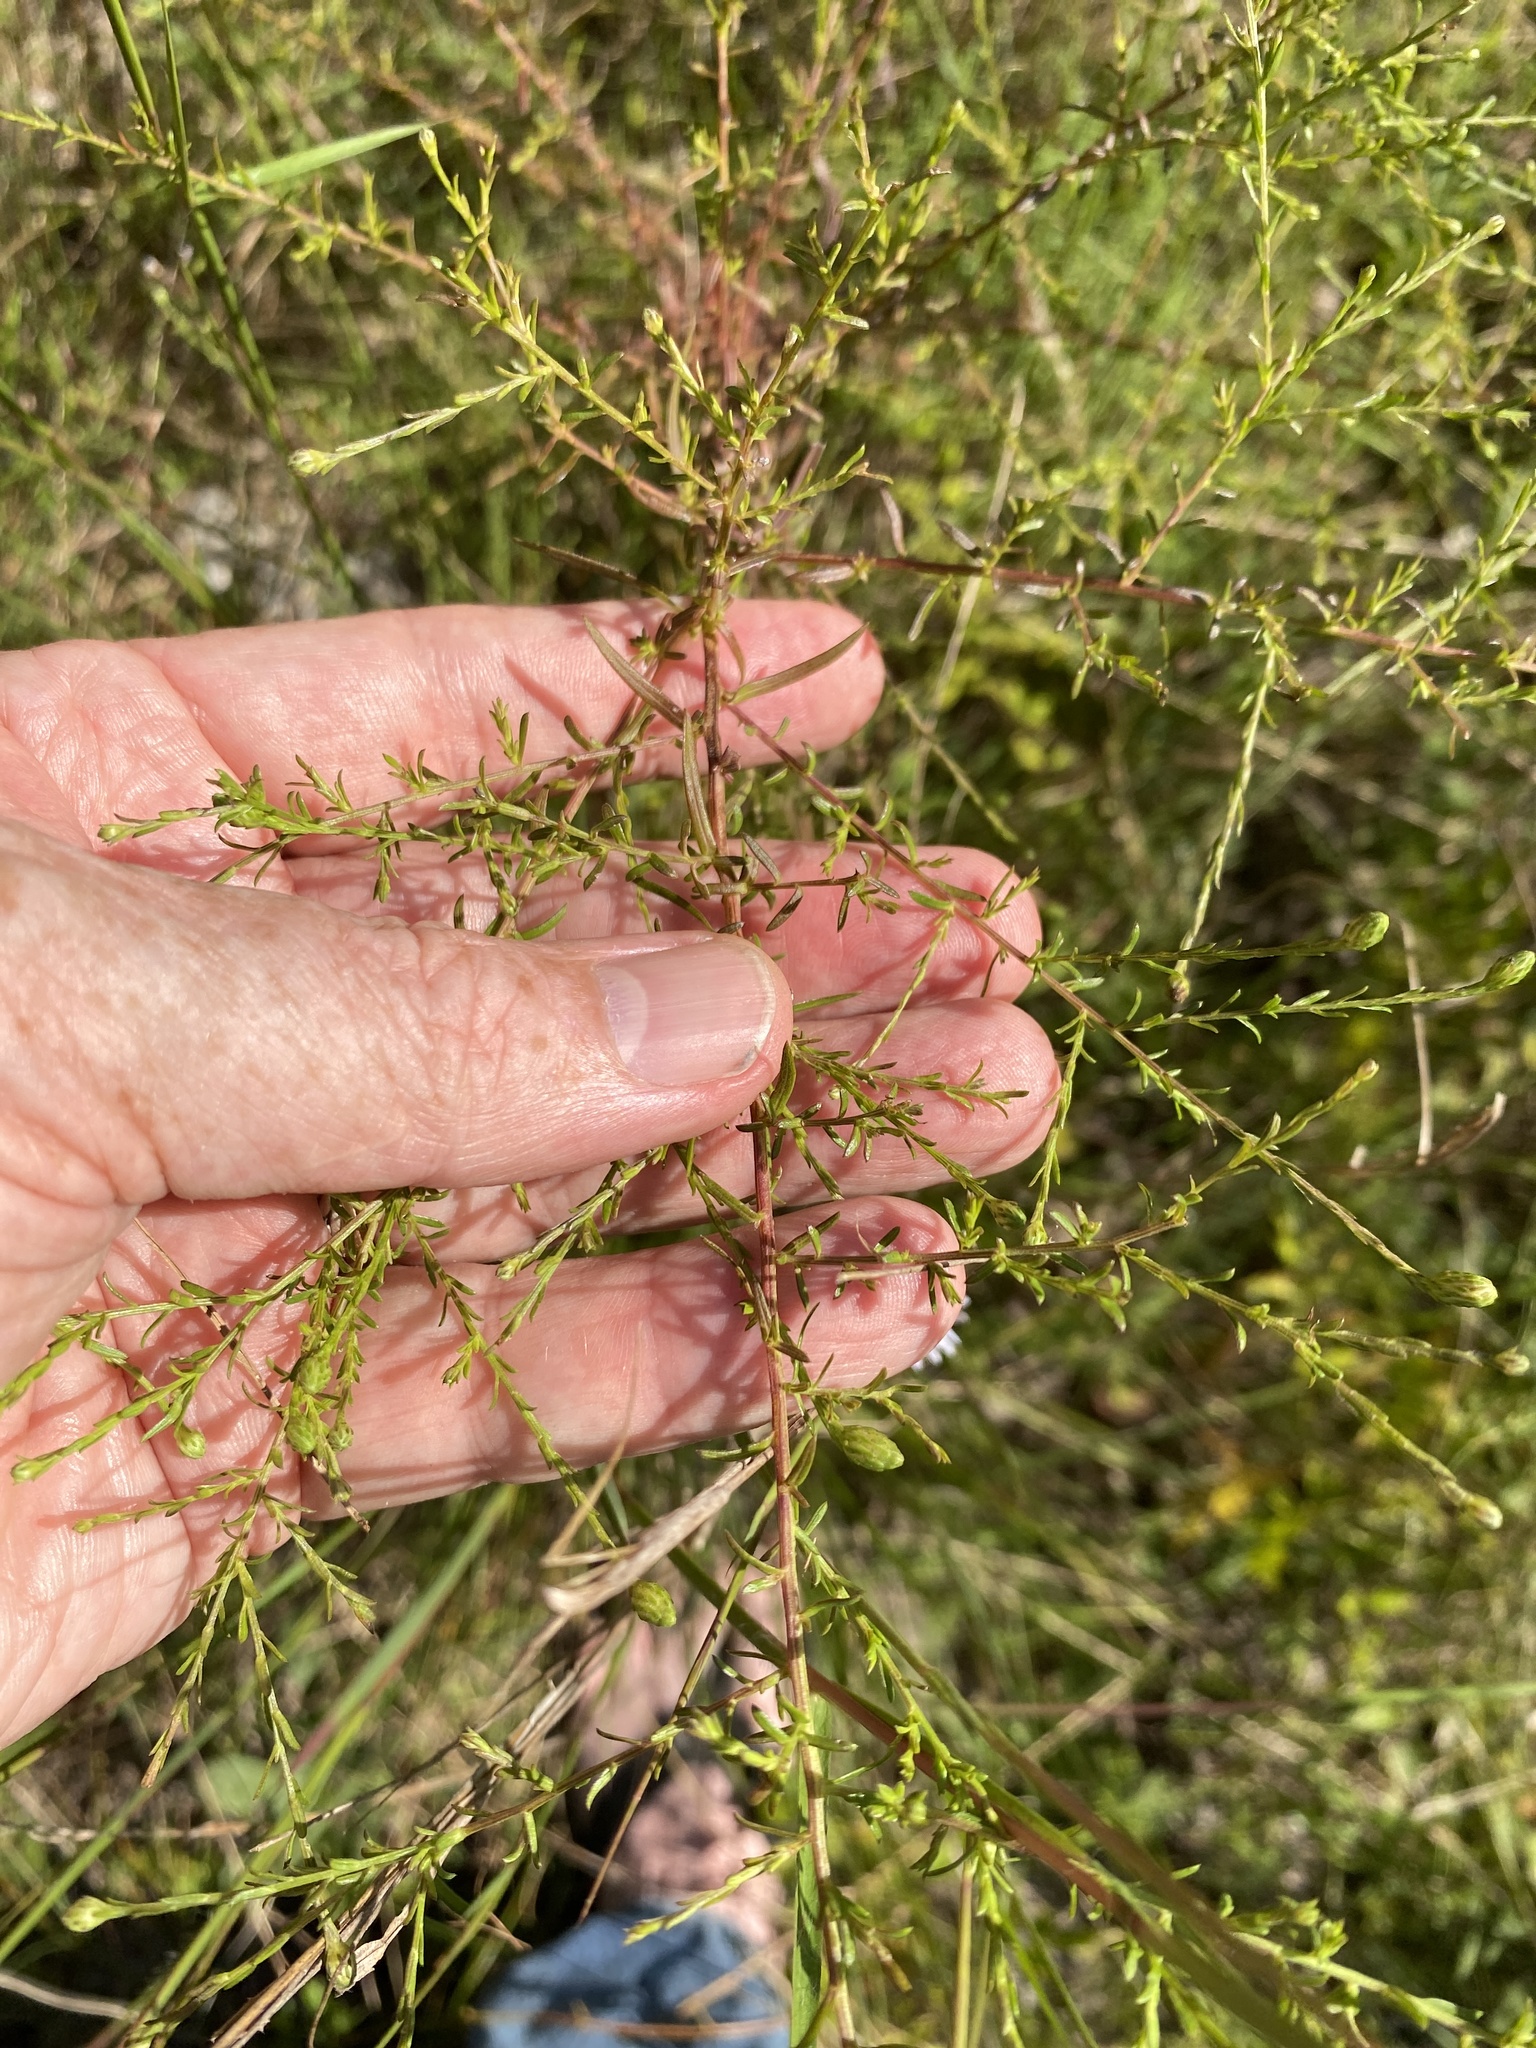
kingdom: Plantae
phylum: Tracheophyta
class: Magnoliopsida
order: Asterales
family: Asteraceae
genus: Symphyotrichum
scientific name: Symphyotrichum dumosum
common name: Bushy aster
